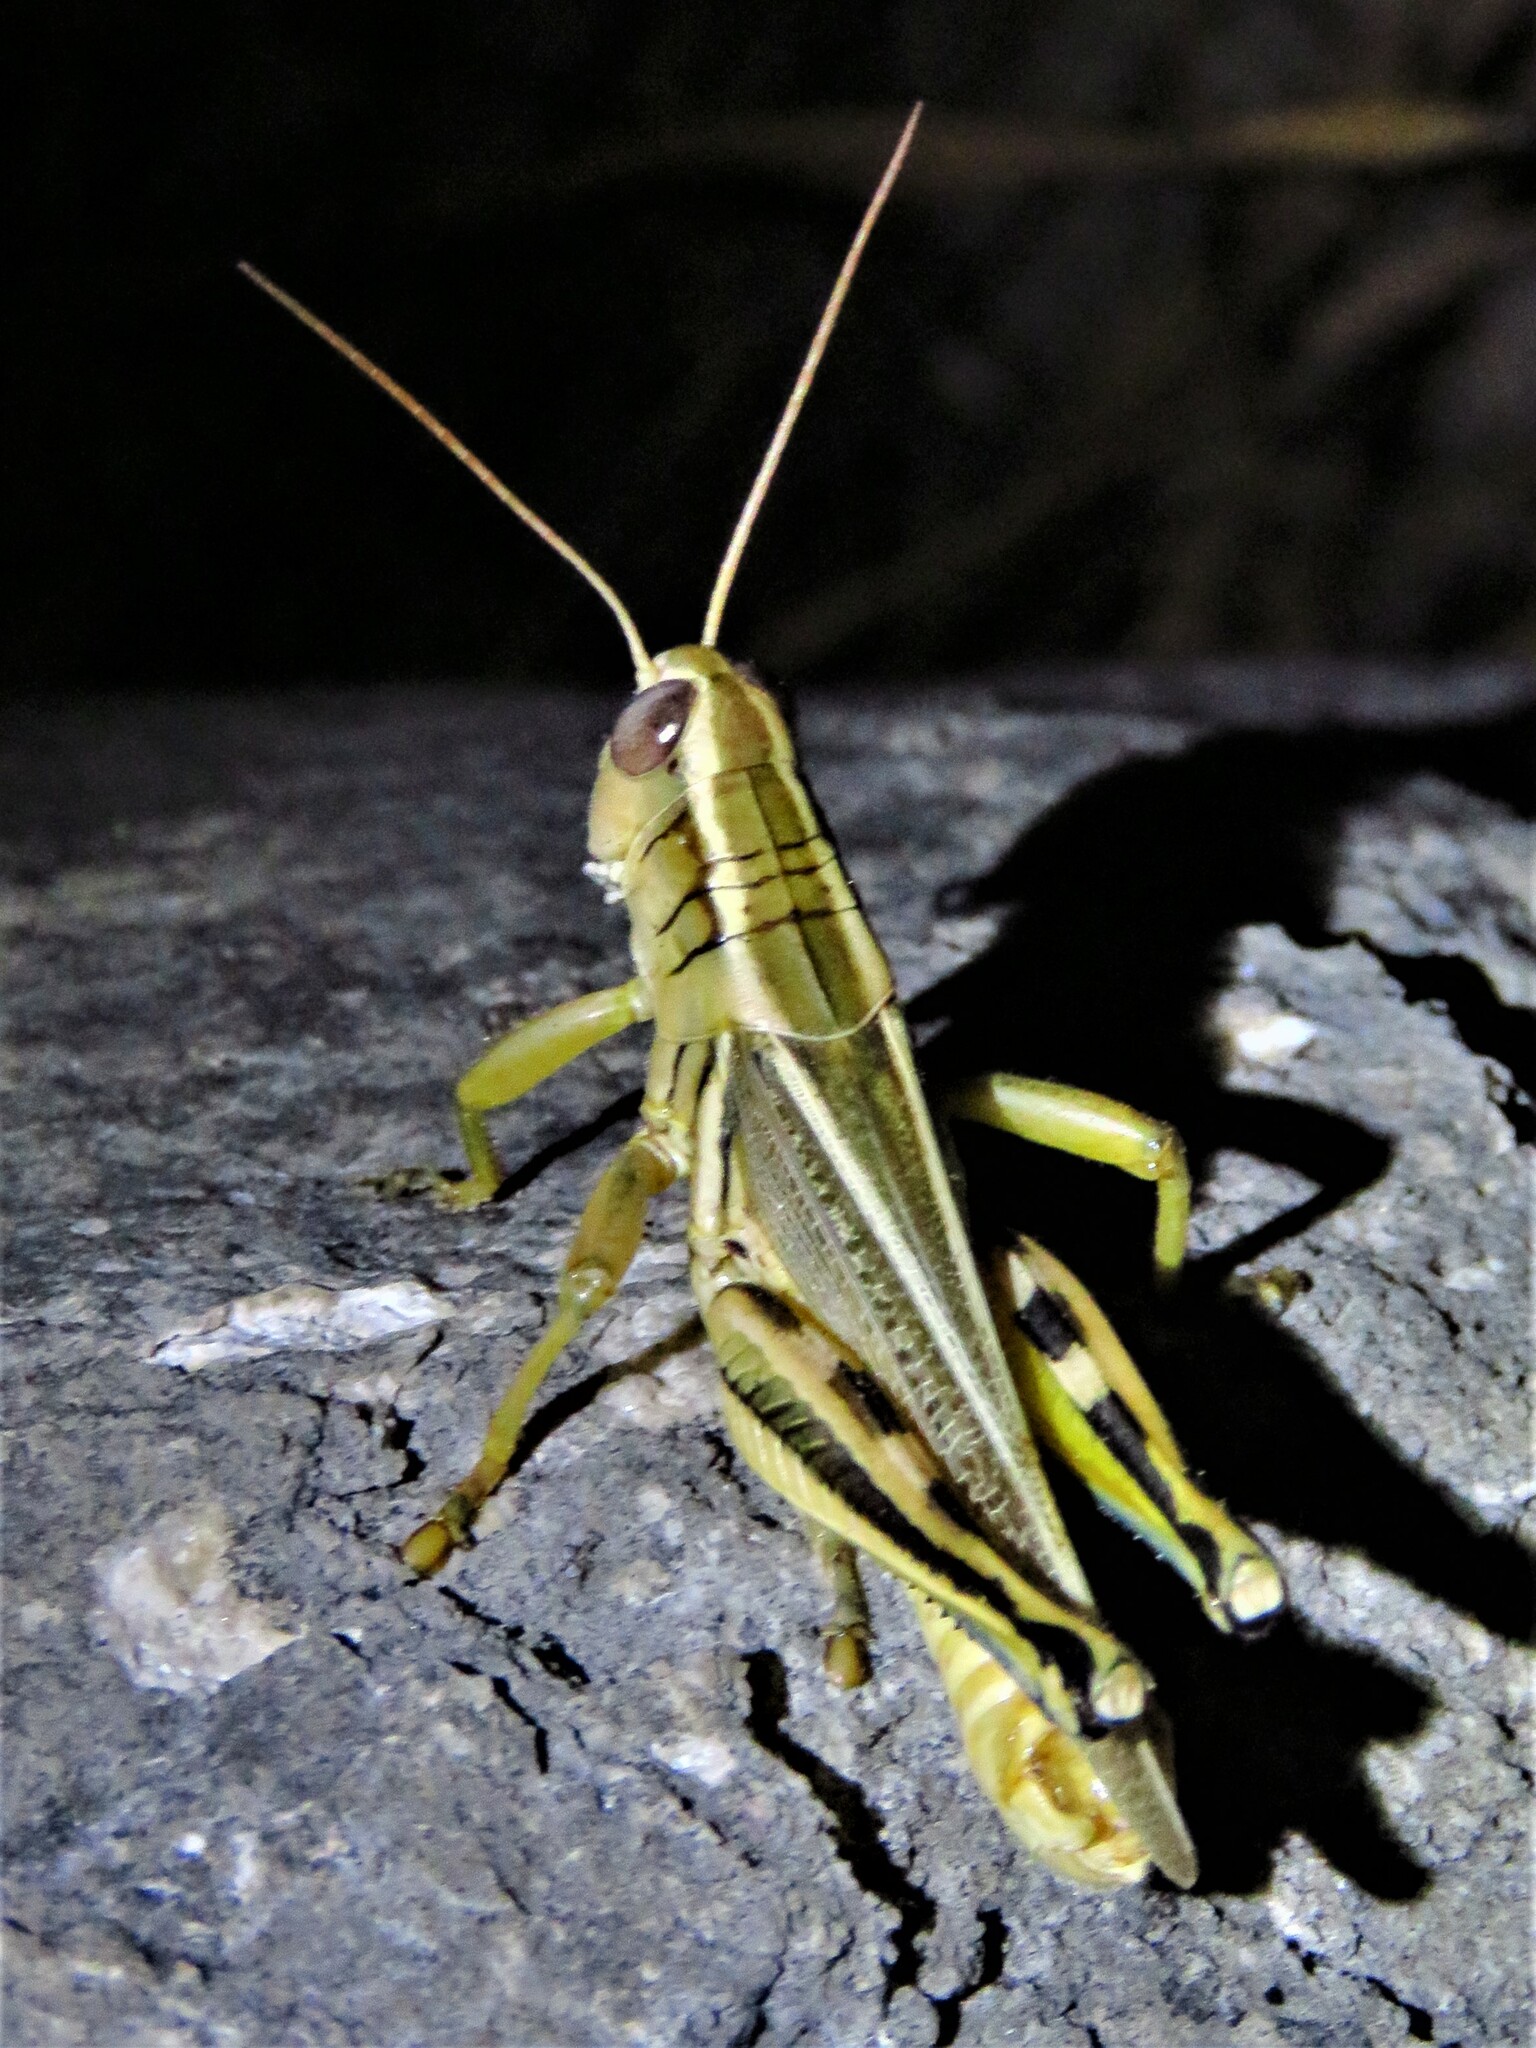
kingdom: Animalia
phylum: Arthropoda
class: Insecta
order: Orthoptera
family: Acrididae
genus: Melanoplus
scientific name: Melanoplus bivittatus
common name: Two-striped grasshopper
